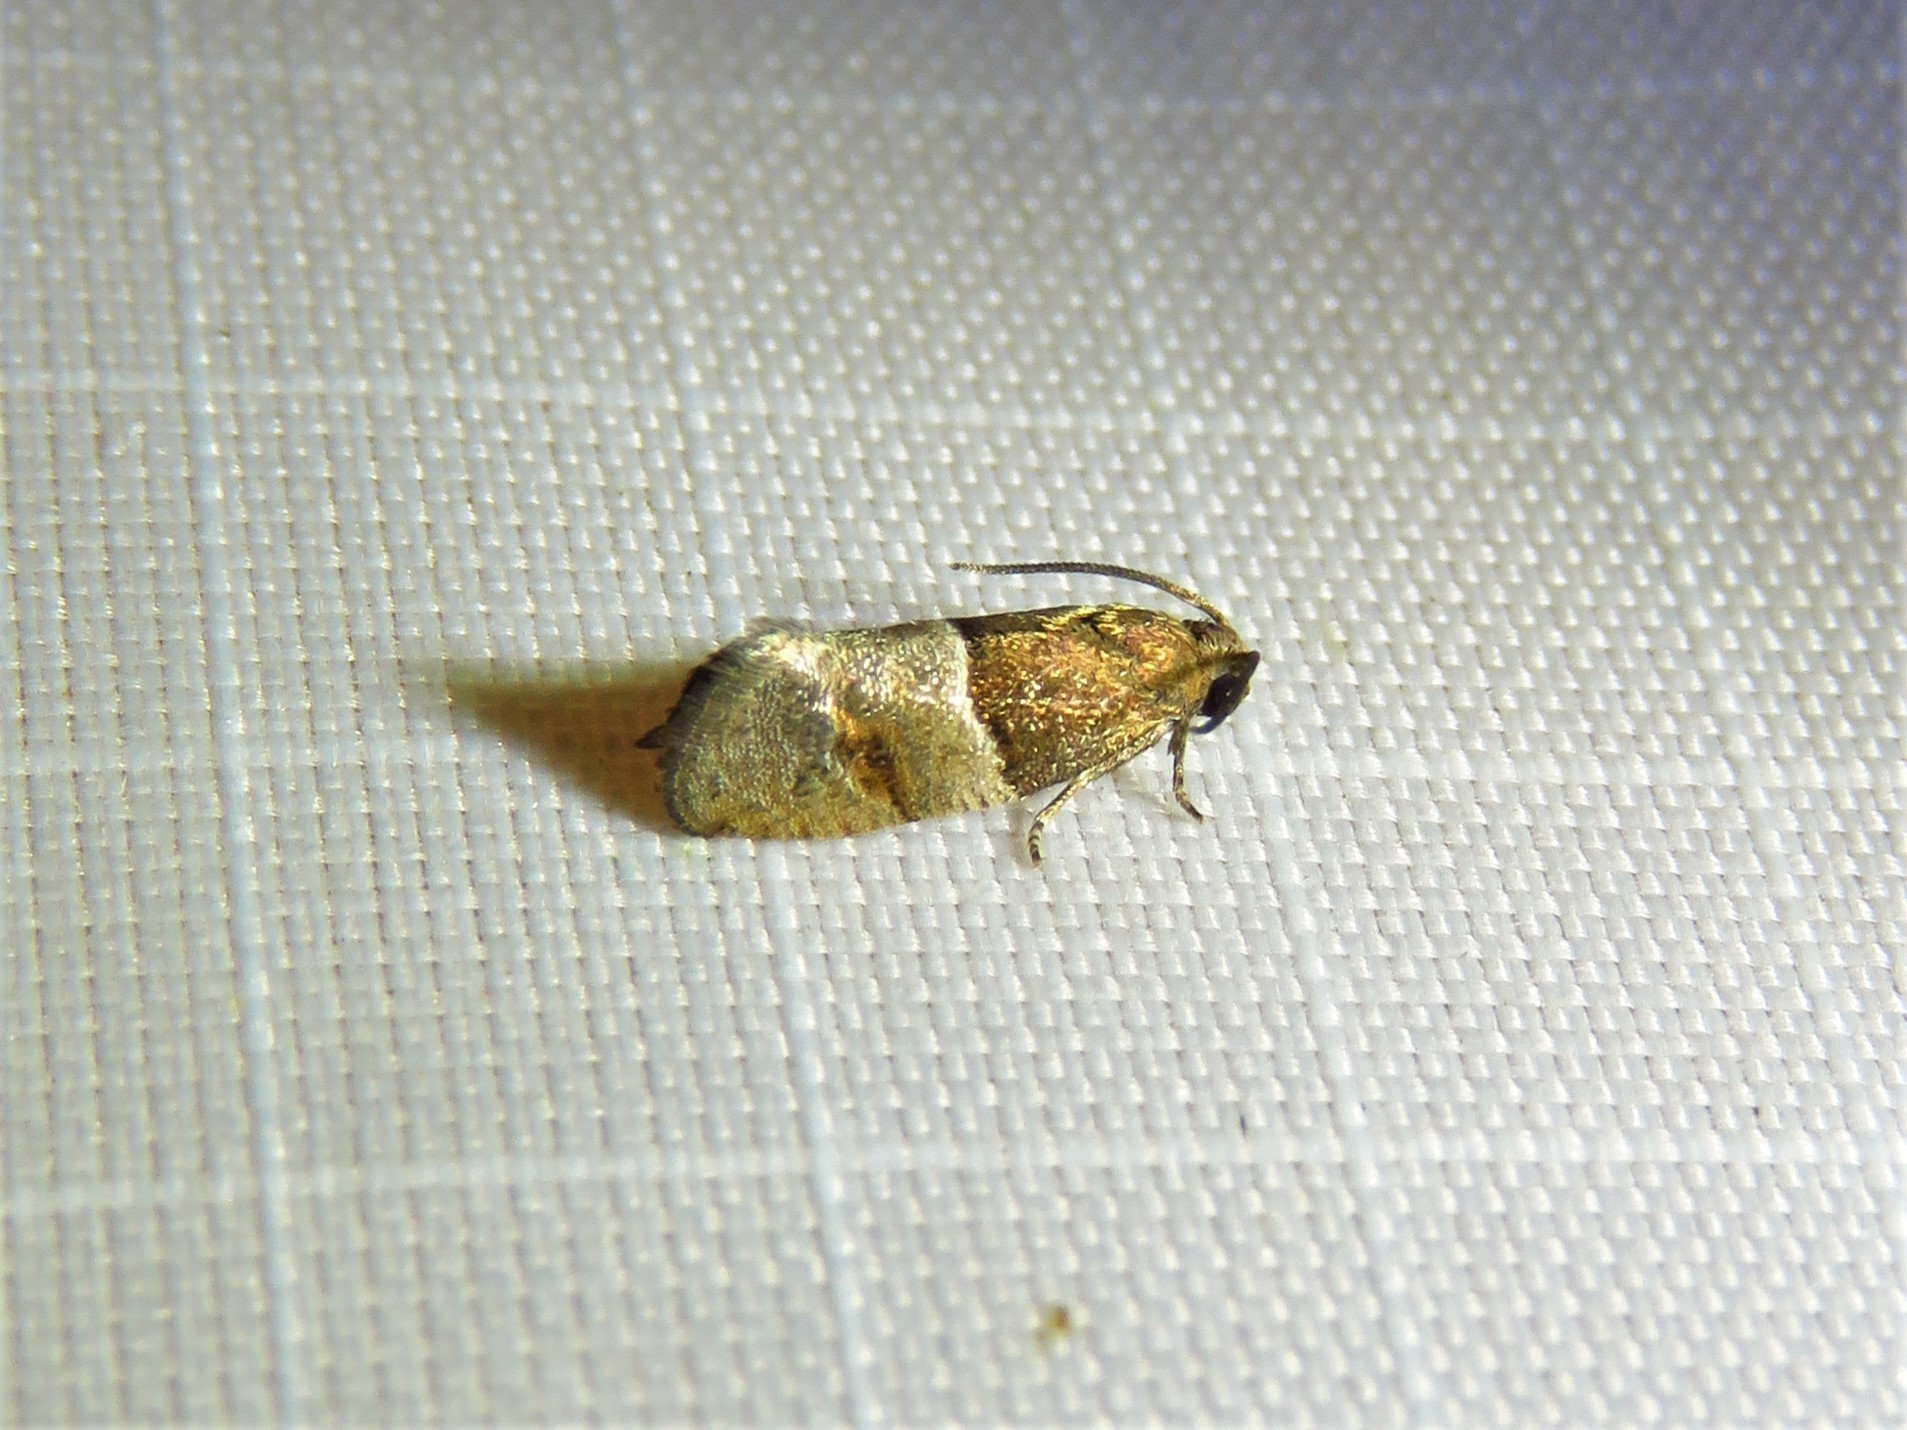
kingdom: Animalia
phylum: Arthropoda
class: Insecta
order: Lepidoptera
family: Tortricidae
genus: Larisa
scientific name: Larisa subsolana
